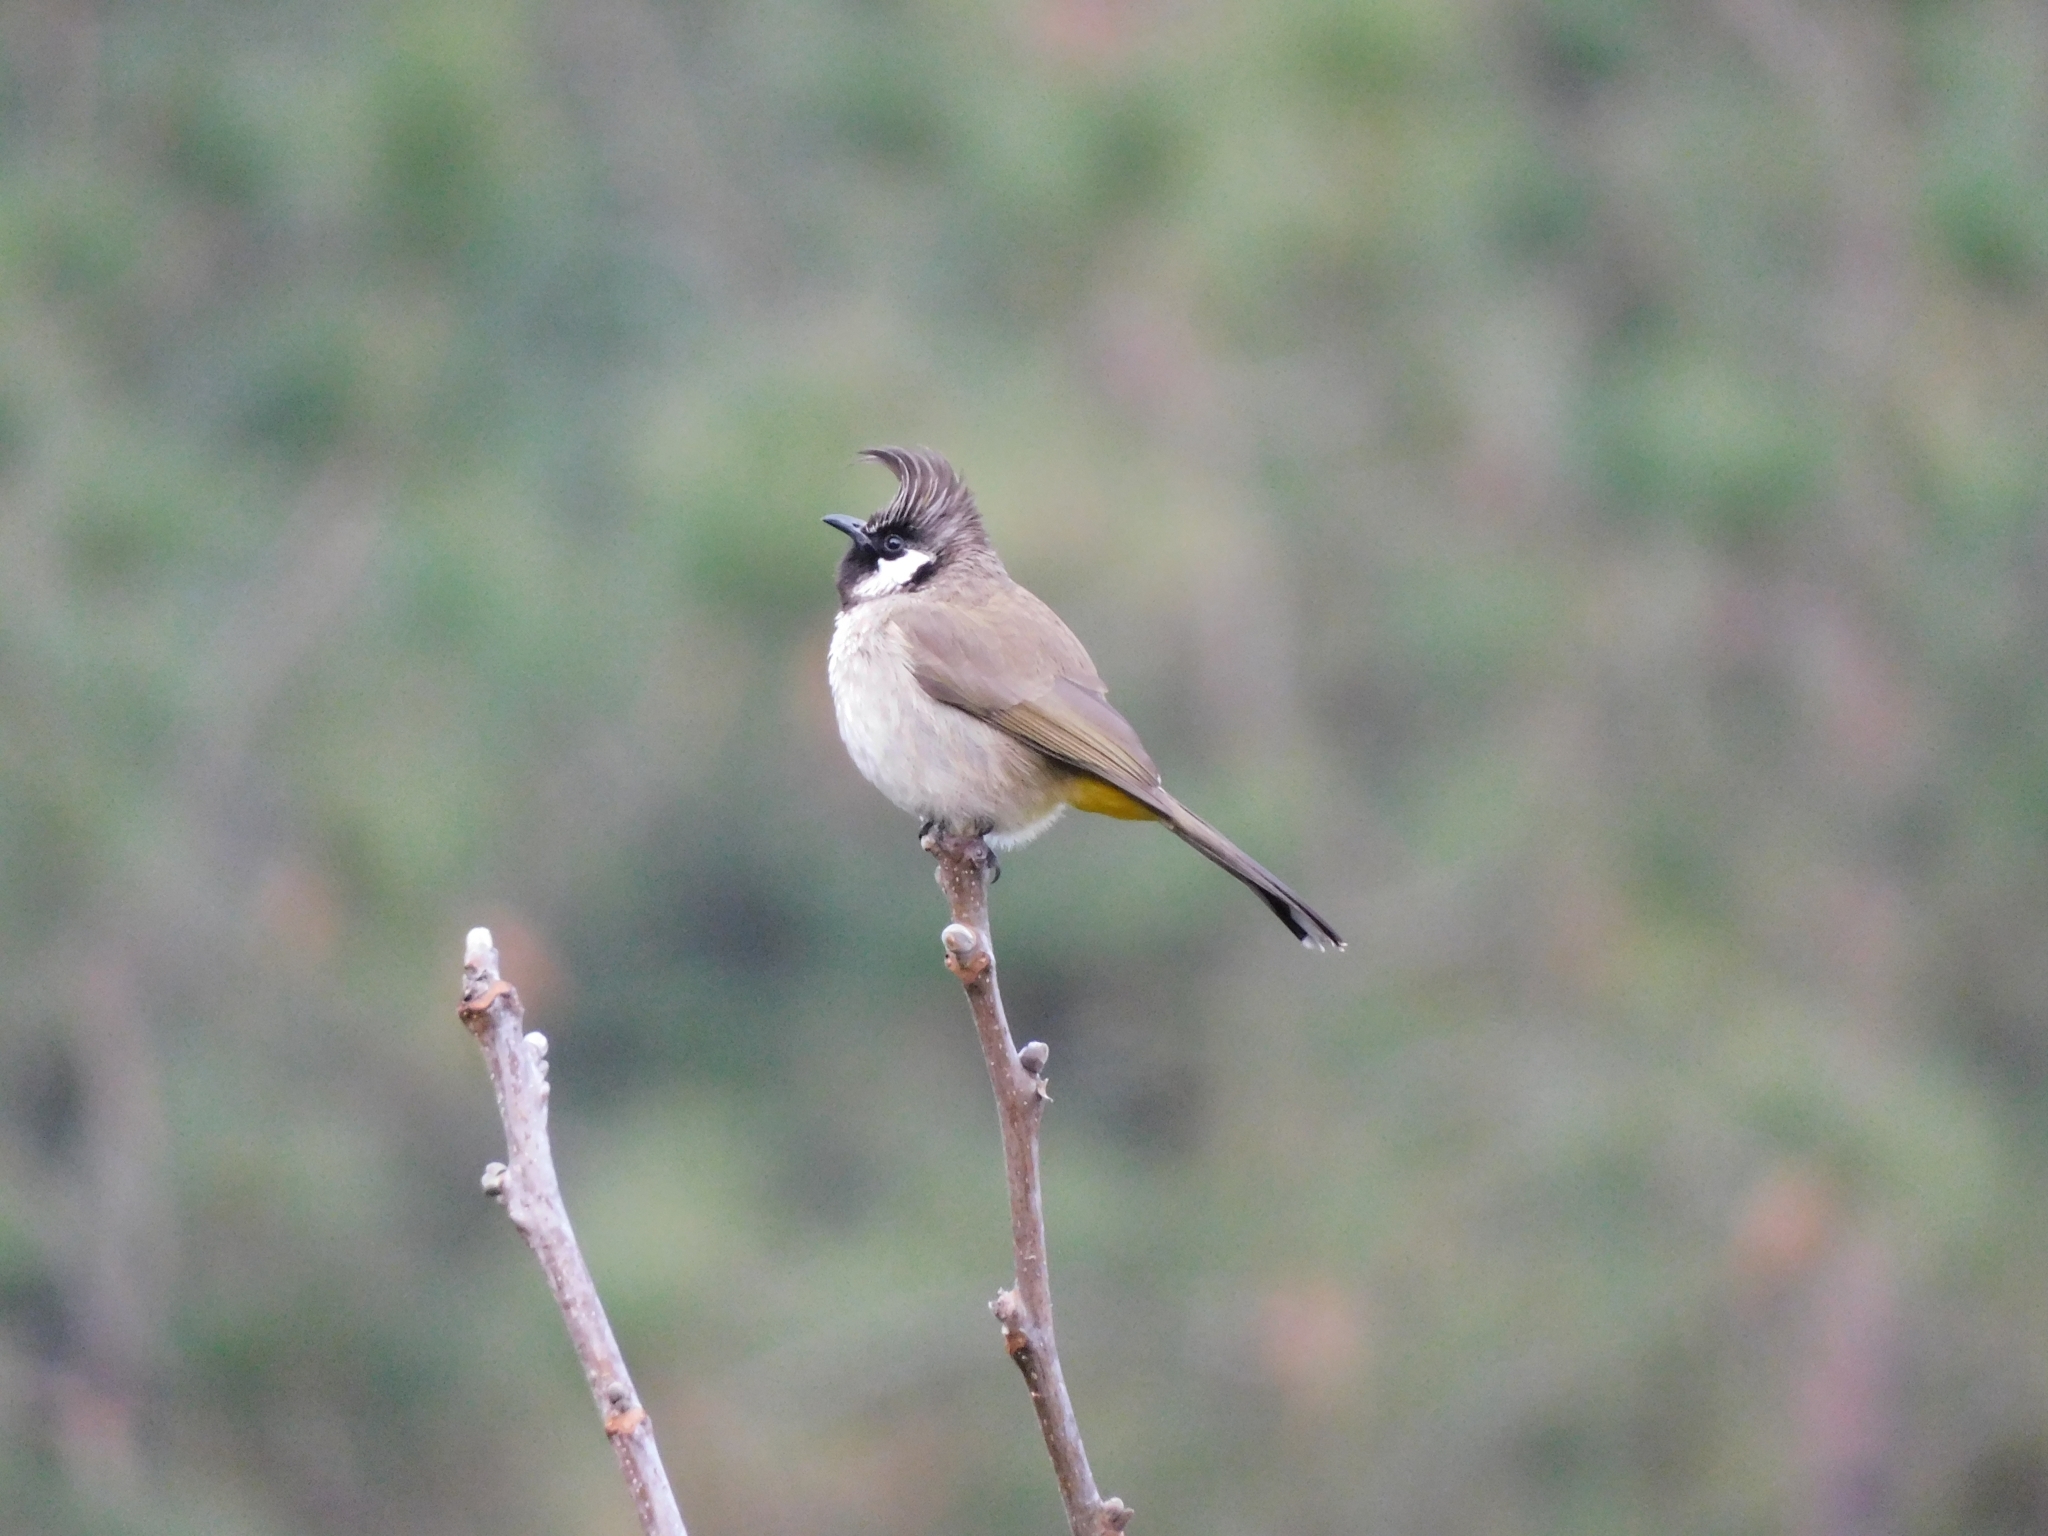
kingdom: Animalia
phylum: Chordata
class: Aves
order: Passeriformes
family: Pycnonotidae
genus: Pycnonotus
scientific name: Pycnonotus leucogenys
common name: Himalayan bulbul
